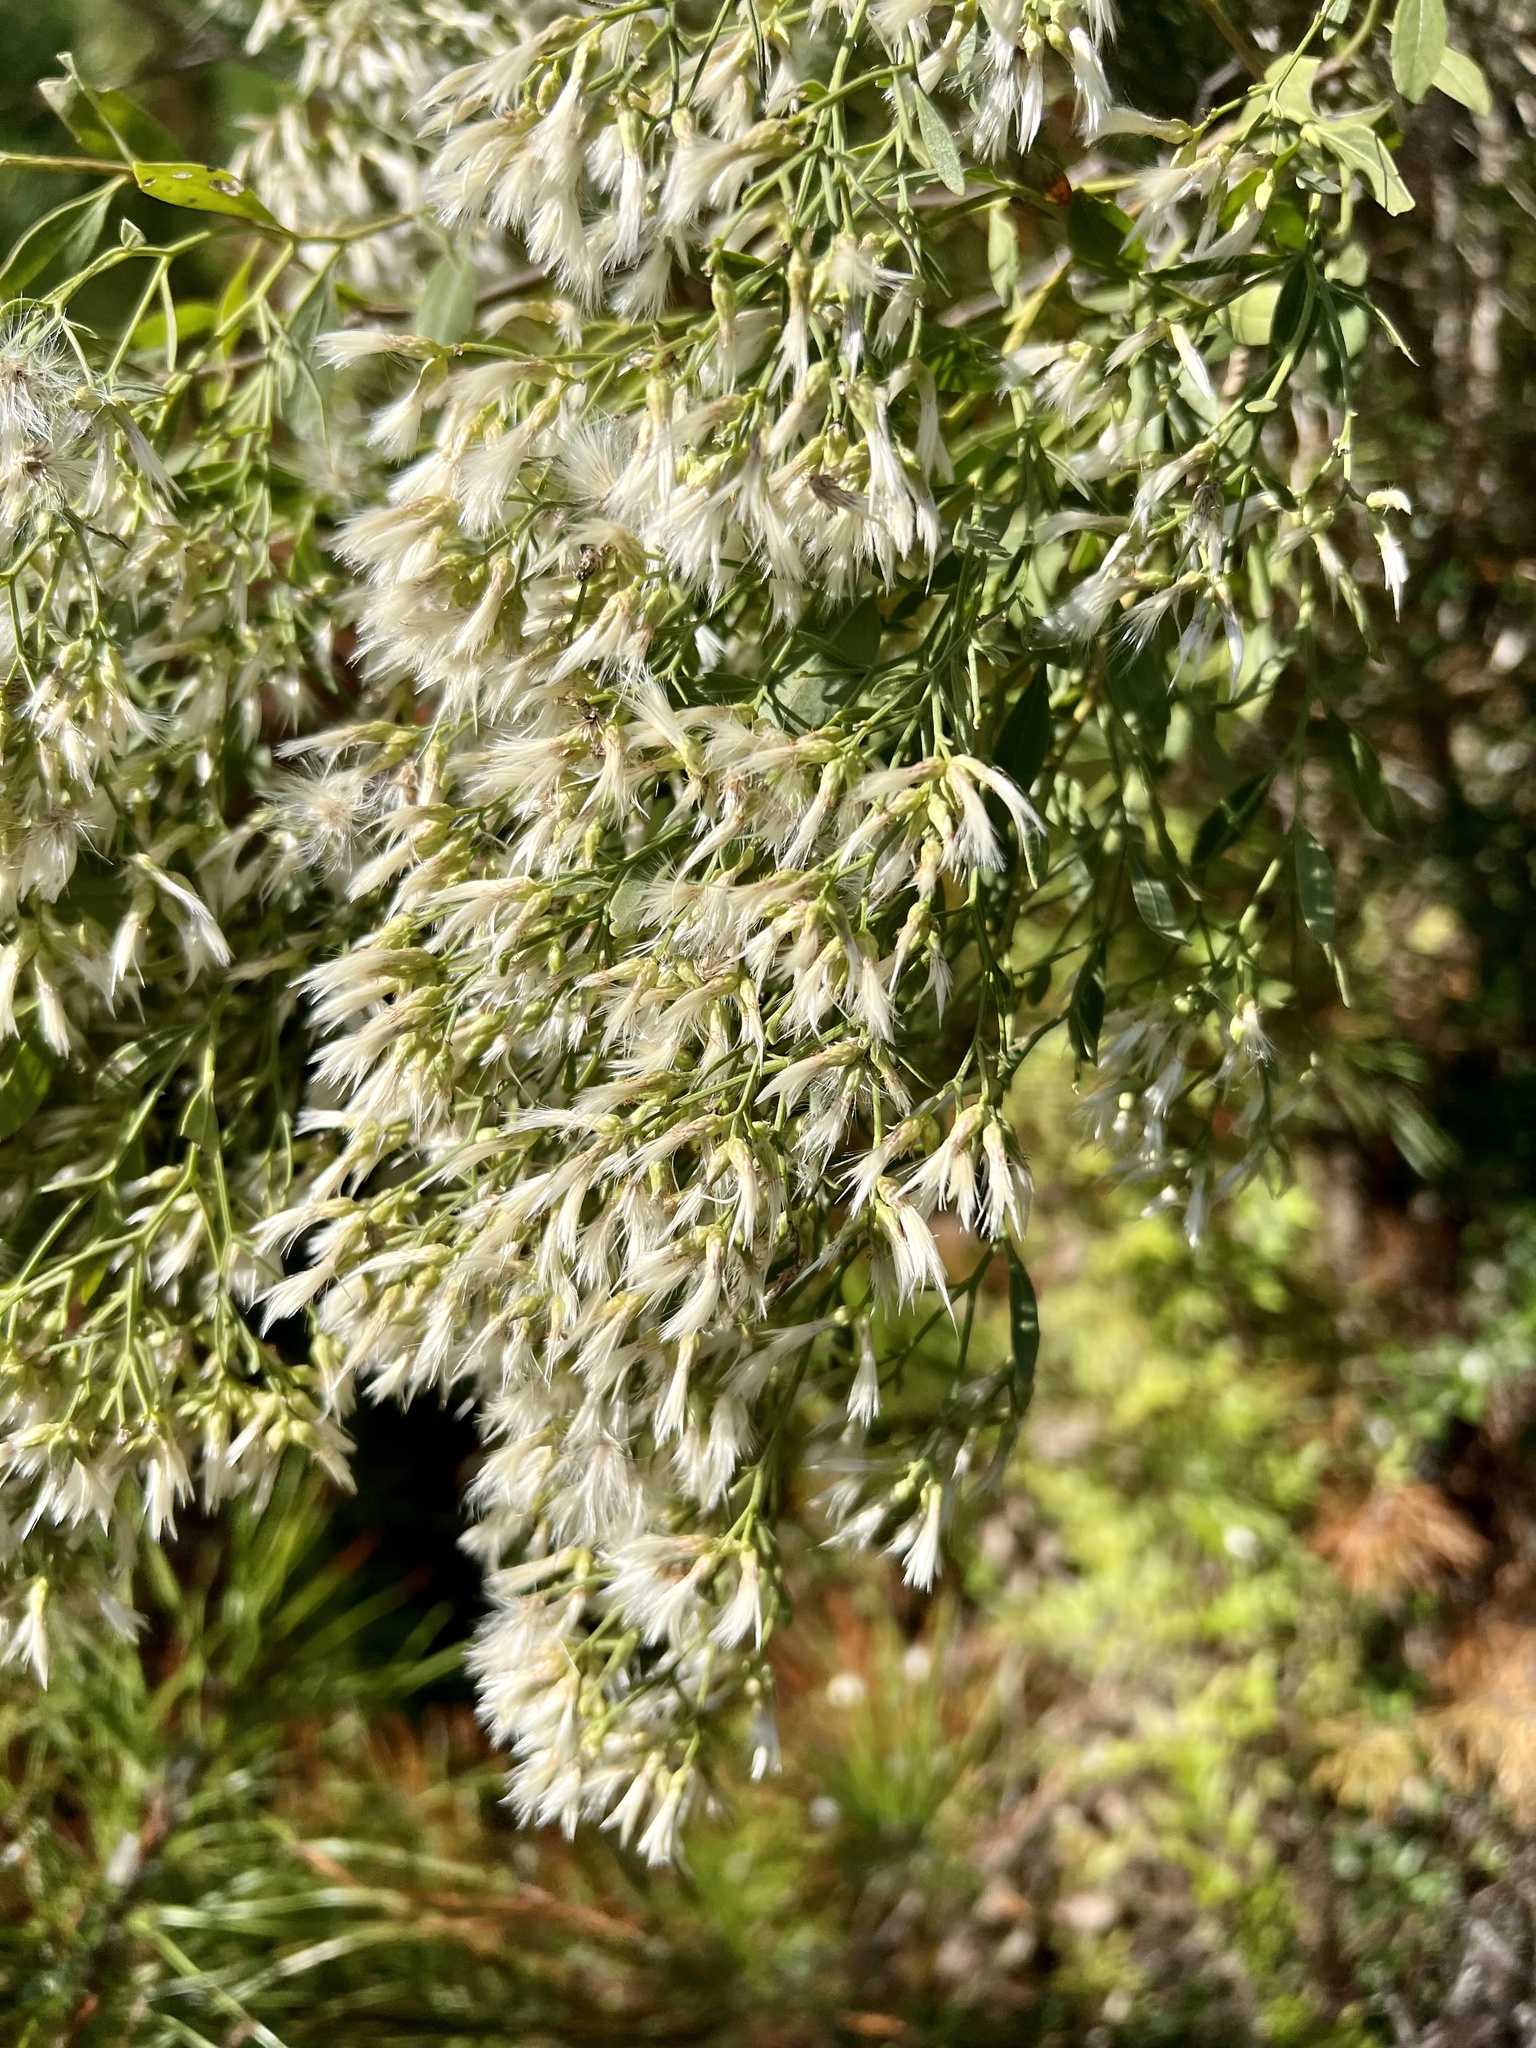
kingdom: Plantae
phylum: Tracheophyta
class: Magnoliopsida
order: Asterales
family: Asteraceae
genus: Baccharis
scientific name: Baccharis halimifolia
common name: Eastern baccharis
